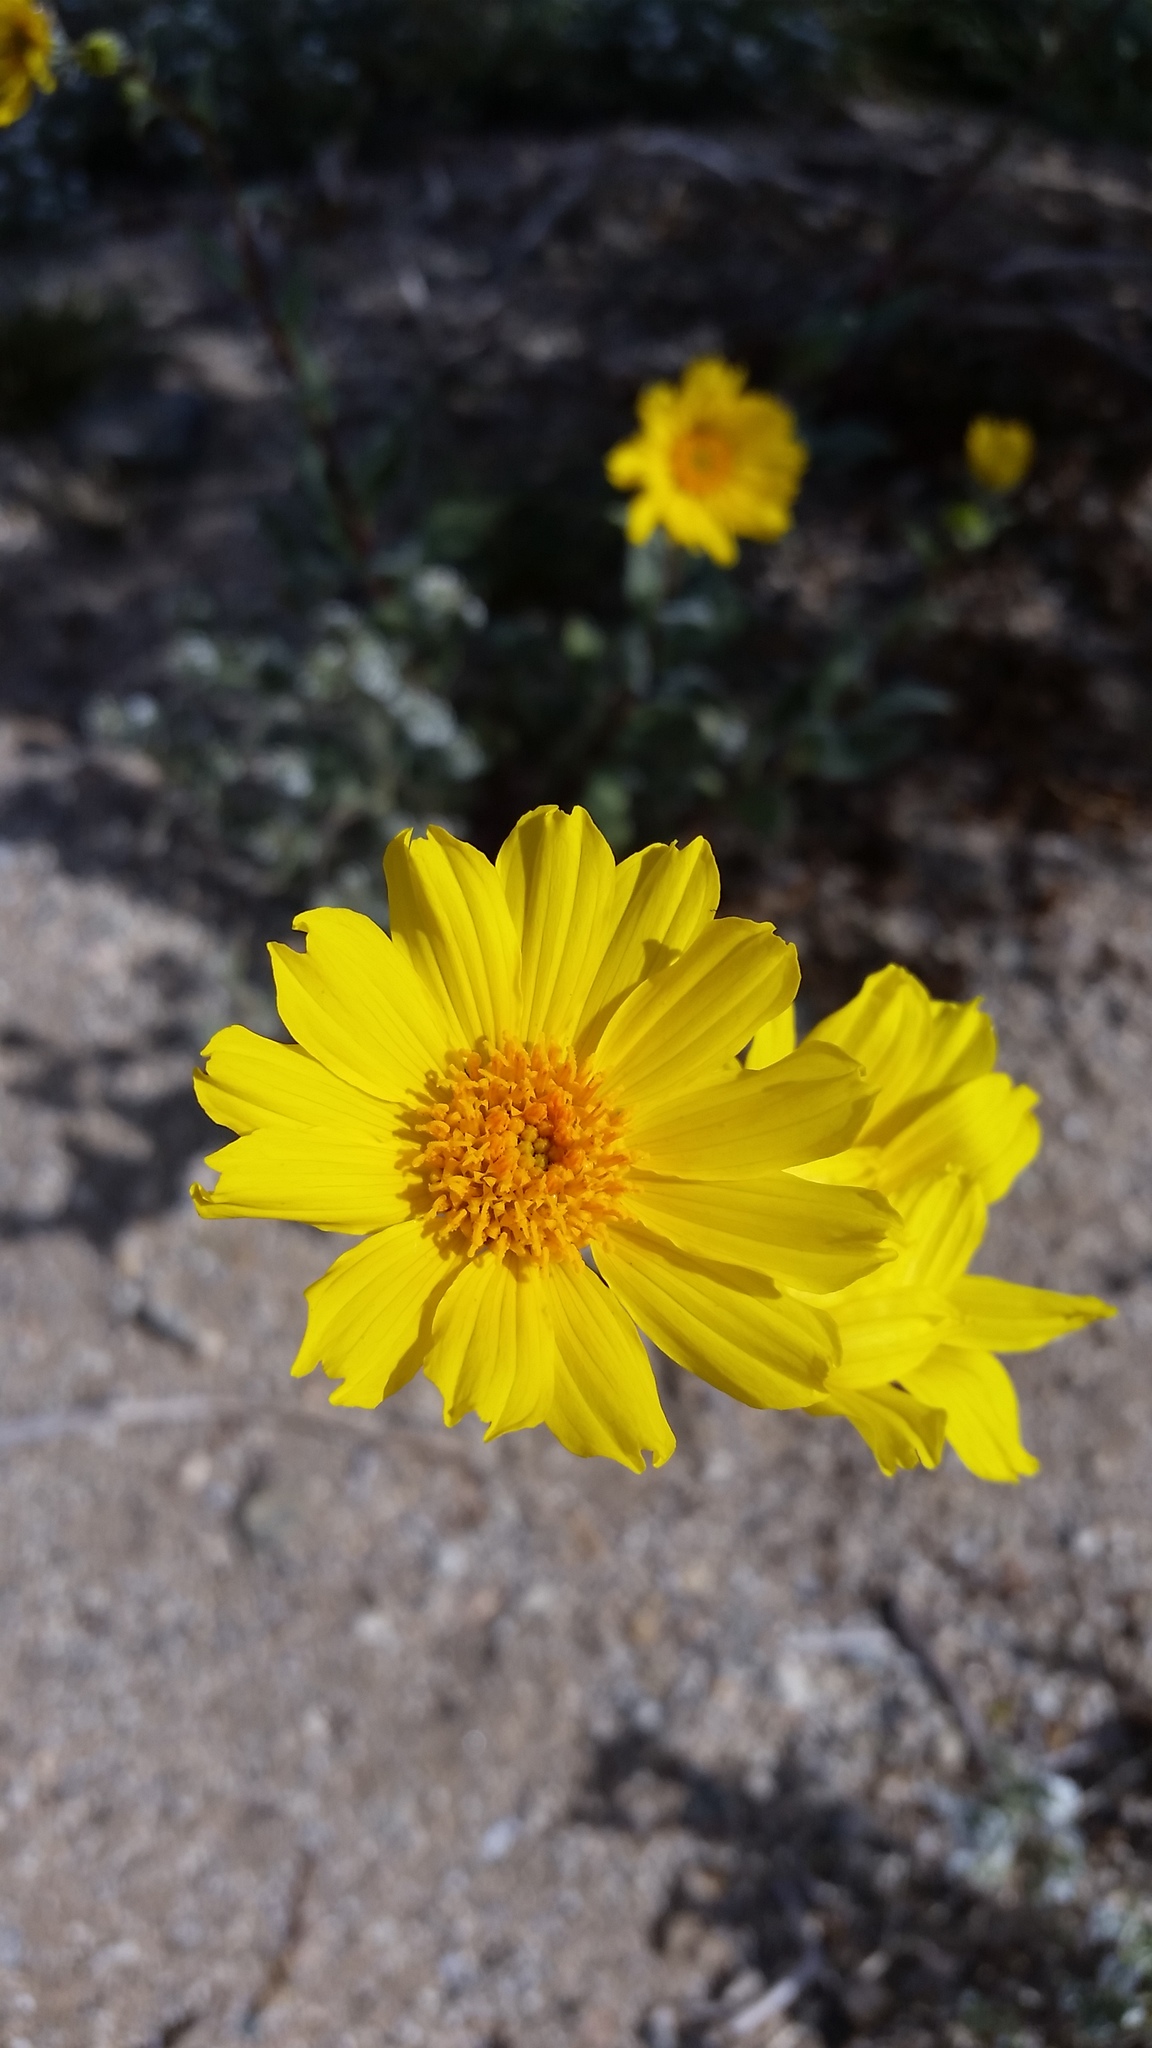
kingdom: Plantae
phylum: Tracheophyta
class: Magnoliopsida
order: Asterales
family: Asteraceae
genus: Geraea
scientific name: Geraea canescens
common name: Desert-gold
